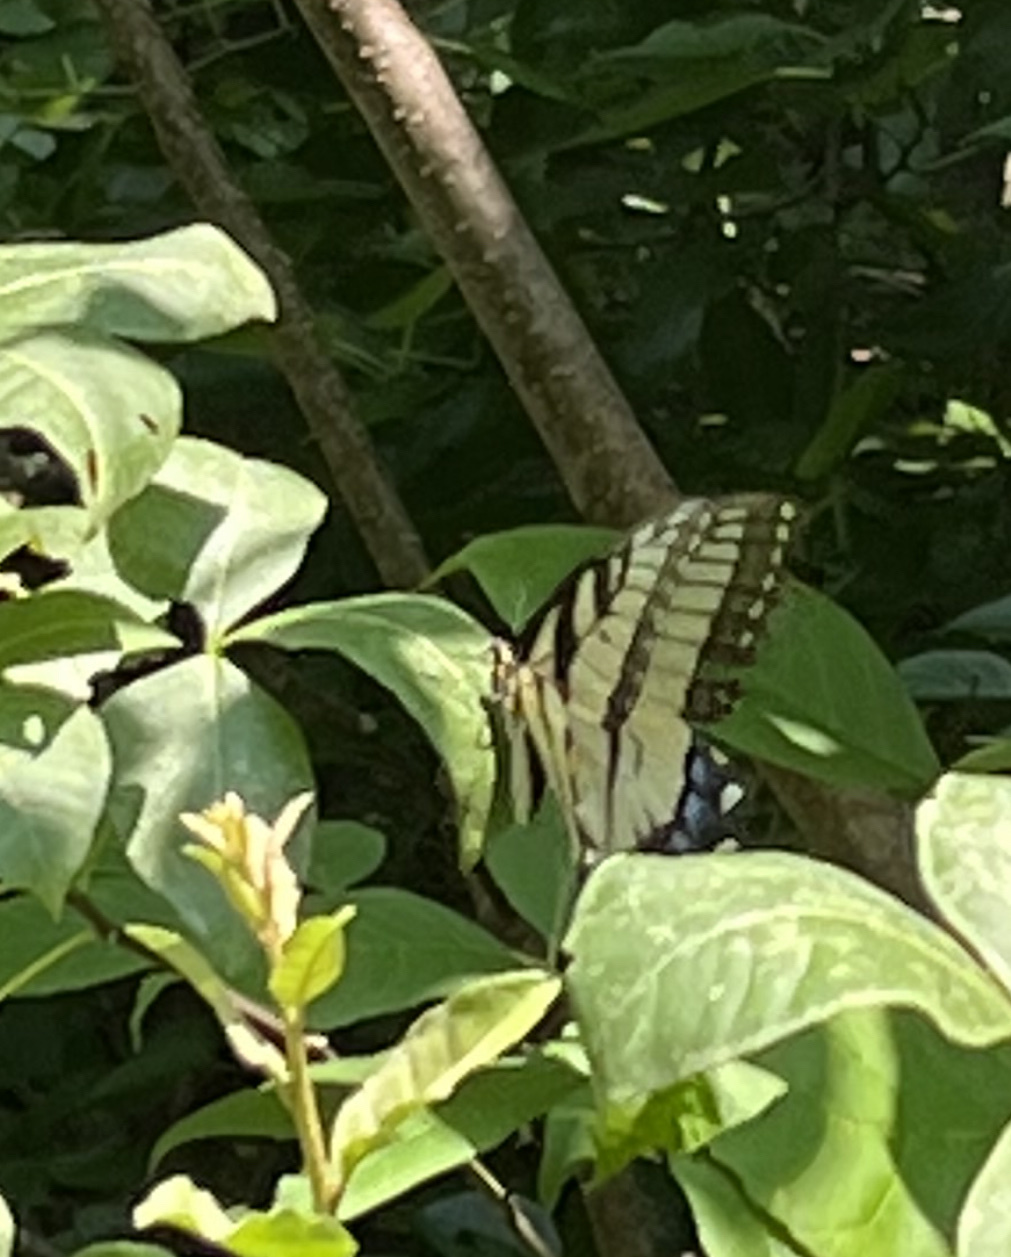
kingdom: Animalia
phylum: Arthropoda
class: Insecta
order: Lepidoptera
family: Papilionidae
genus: Papilio
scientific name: Papilio glaucus
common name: Tiger swallowtail
